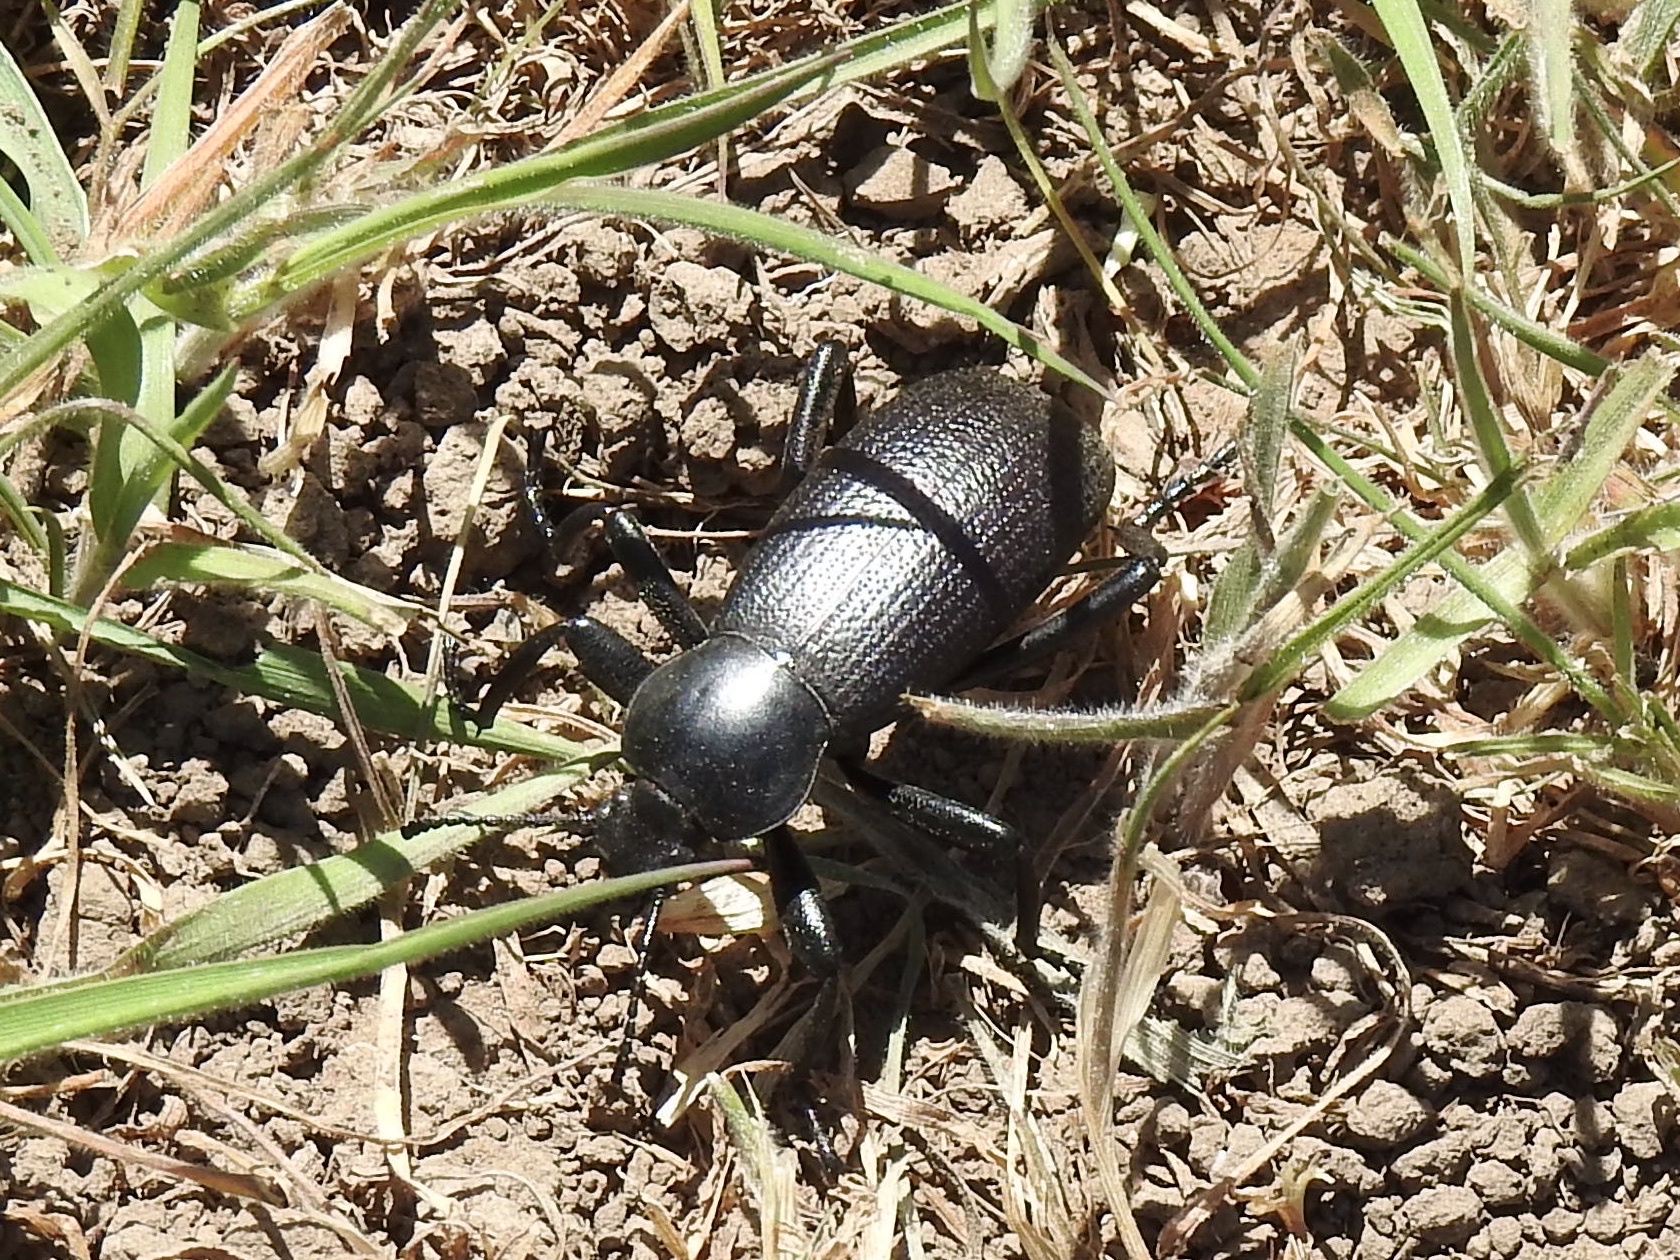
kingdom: Animalia
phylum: Arthropoda
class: Insecta
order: Coleoptera
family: Tenebrionidae
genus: Eleodes
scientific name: Eleodes obscura
